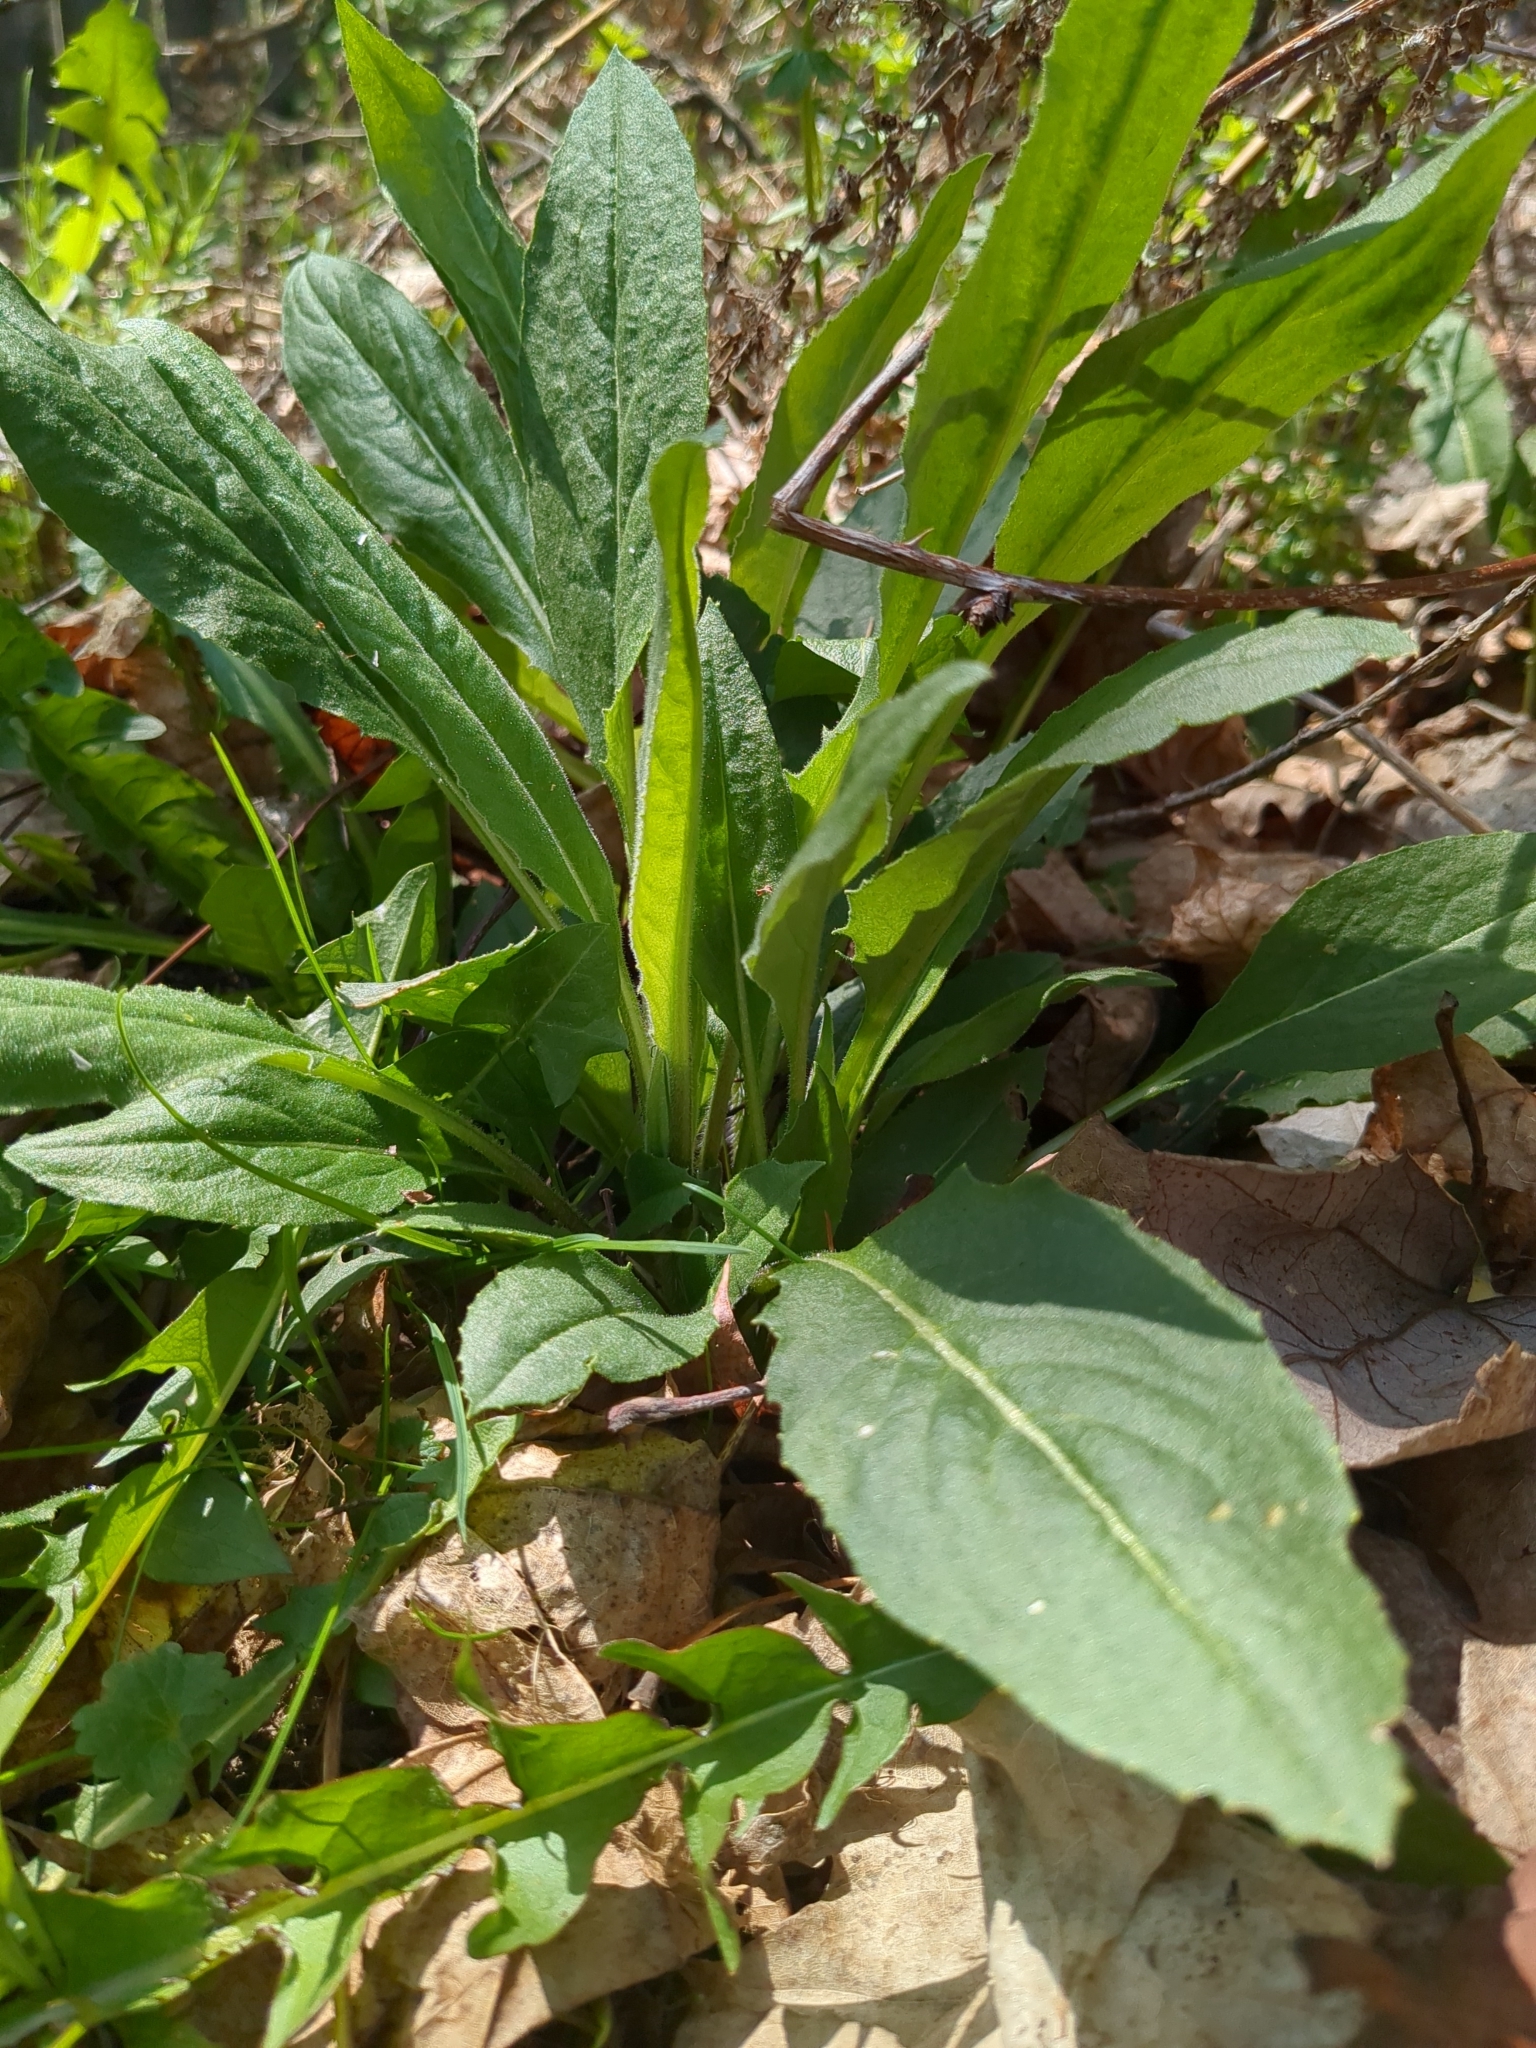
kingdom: Plantae
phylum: Tracheophyta
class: Magnoliopsida
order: Brassicales
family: Brassicaceae
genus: Hesperis
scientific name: Hesperis matronalis
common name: Dame's-violet
